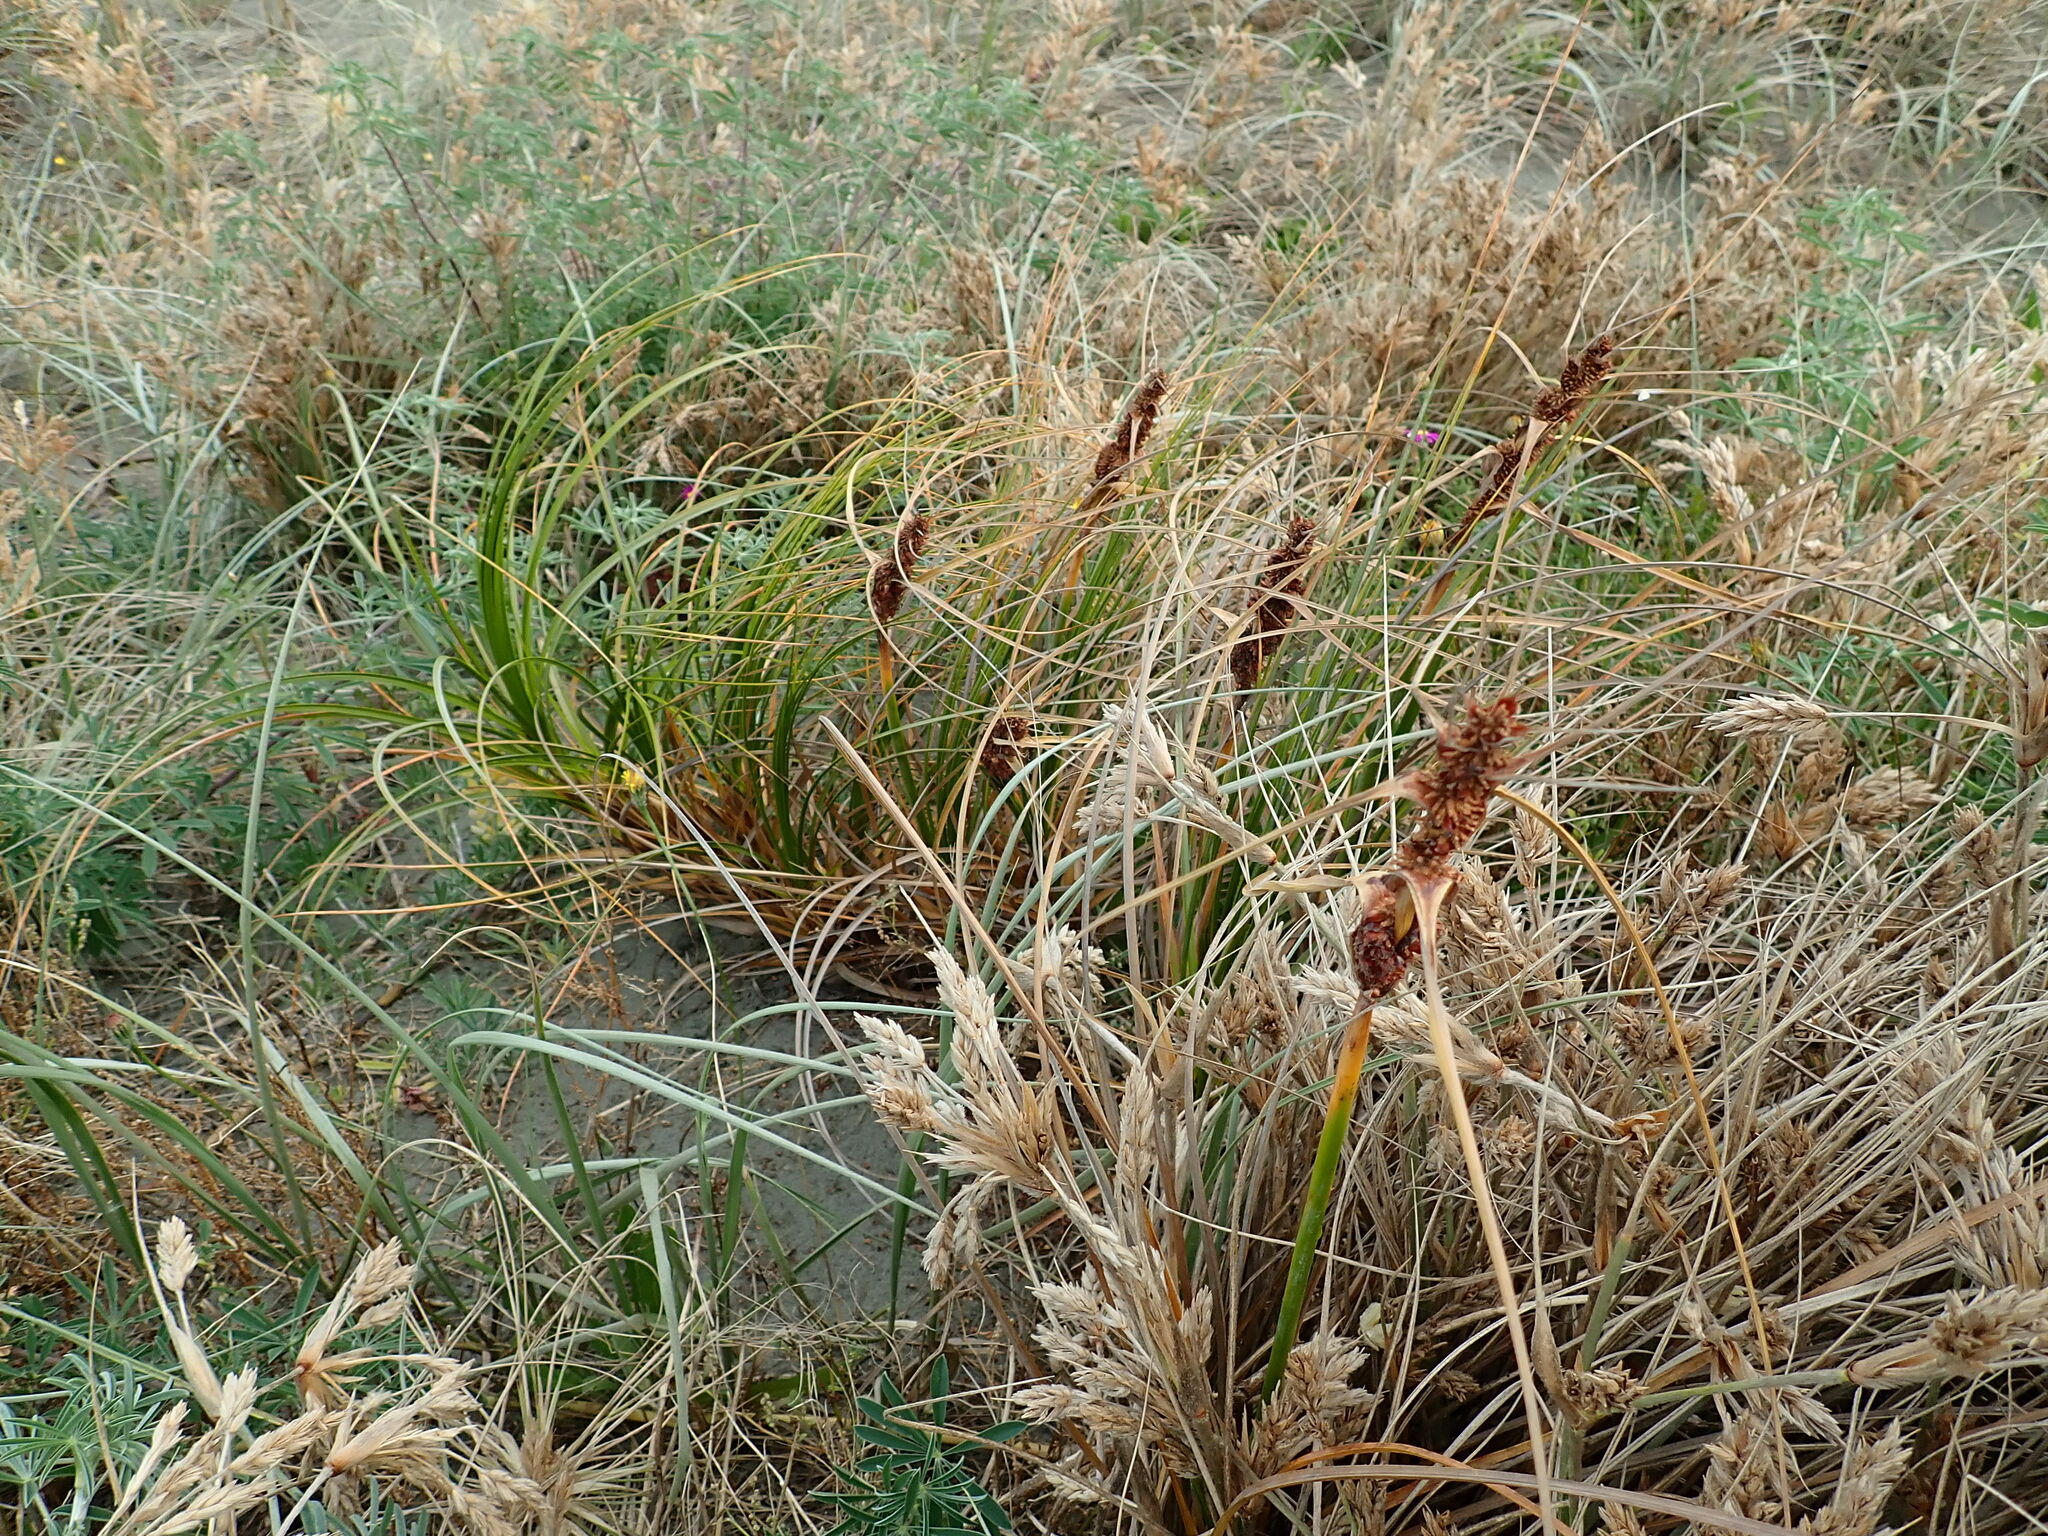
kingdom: Plantae
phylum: Tracheophyta
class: Liliopsida
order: Poales
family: Cyperaceae
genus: Ficinia
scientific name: Ficinia spiralis
